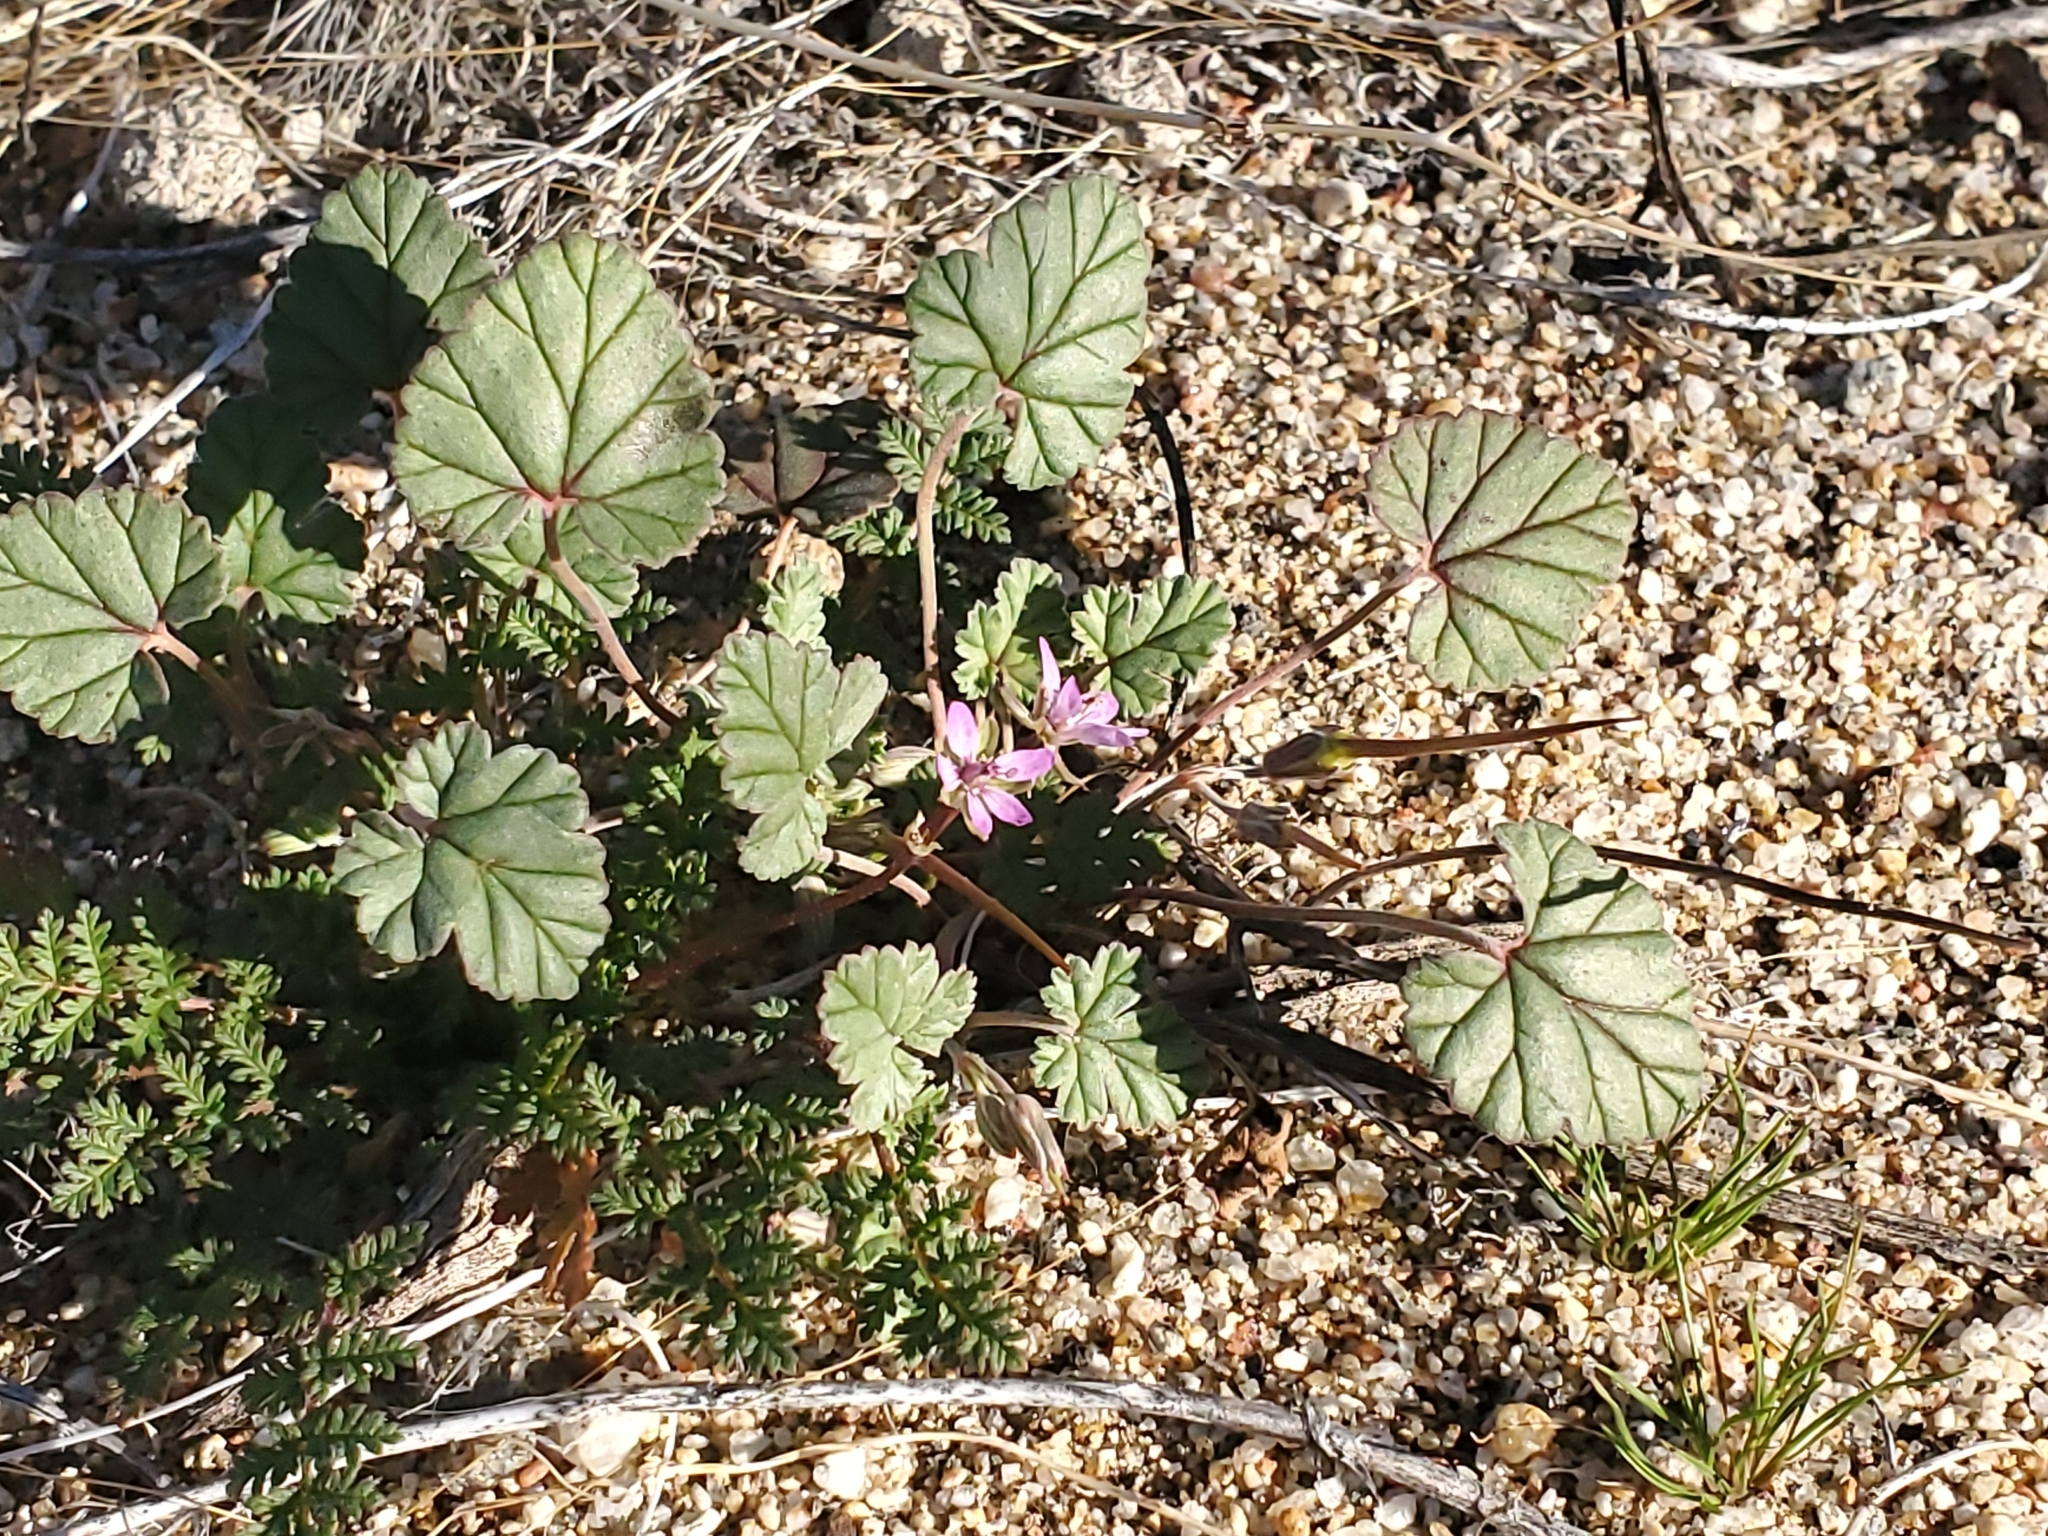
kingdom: Plantae
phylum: Tracheophyta
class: Magnoliopsida
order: Geraniales
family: Geraniaceae
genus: Erodium
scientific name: Erodium texanum
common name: Texas stork's-bill
